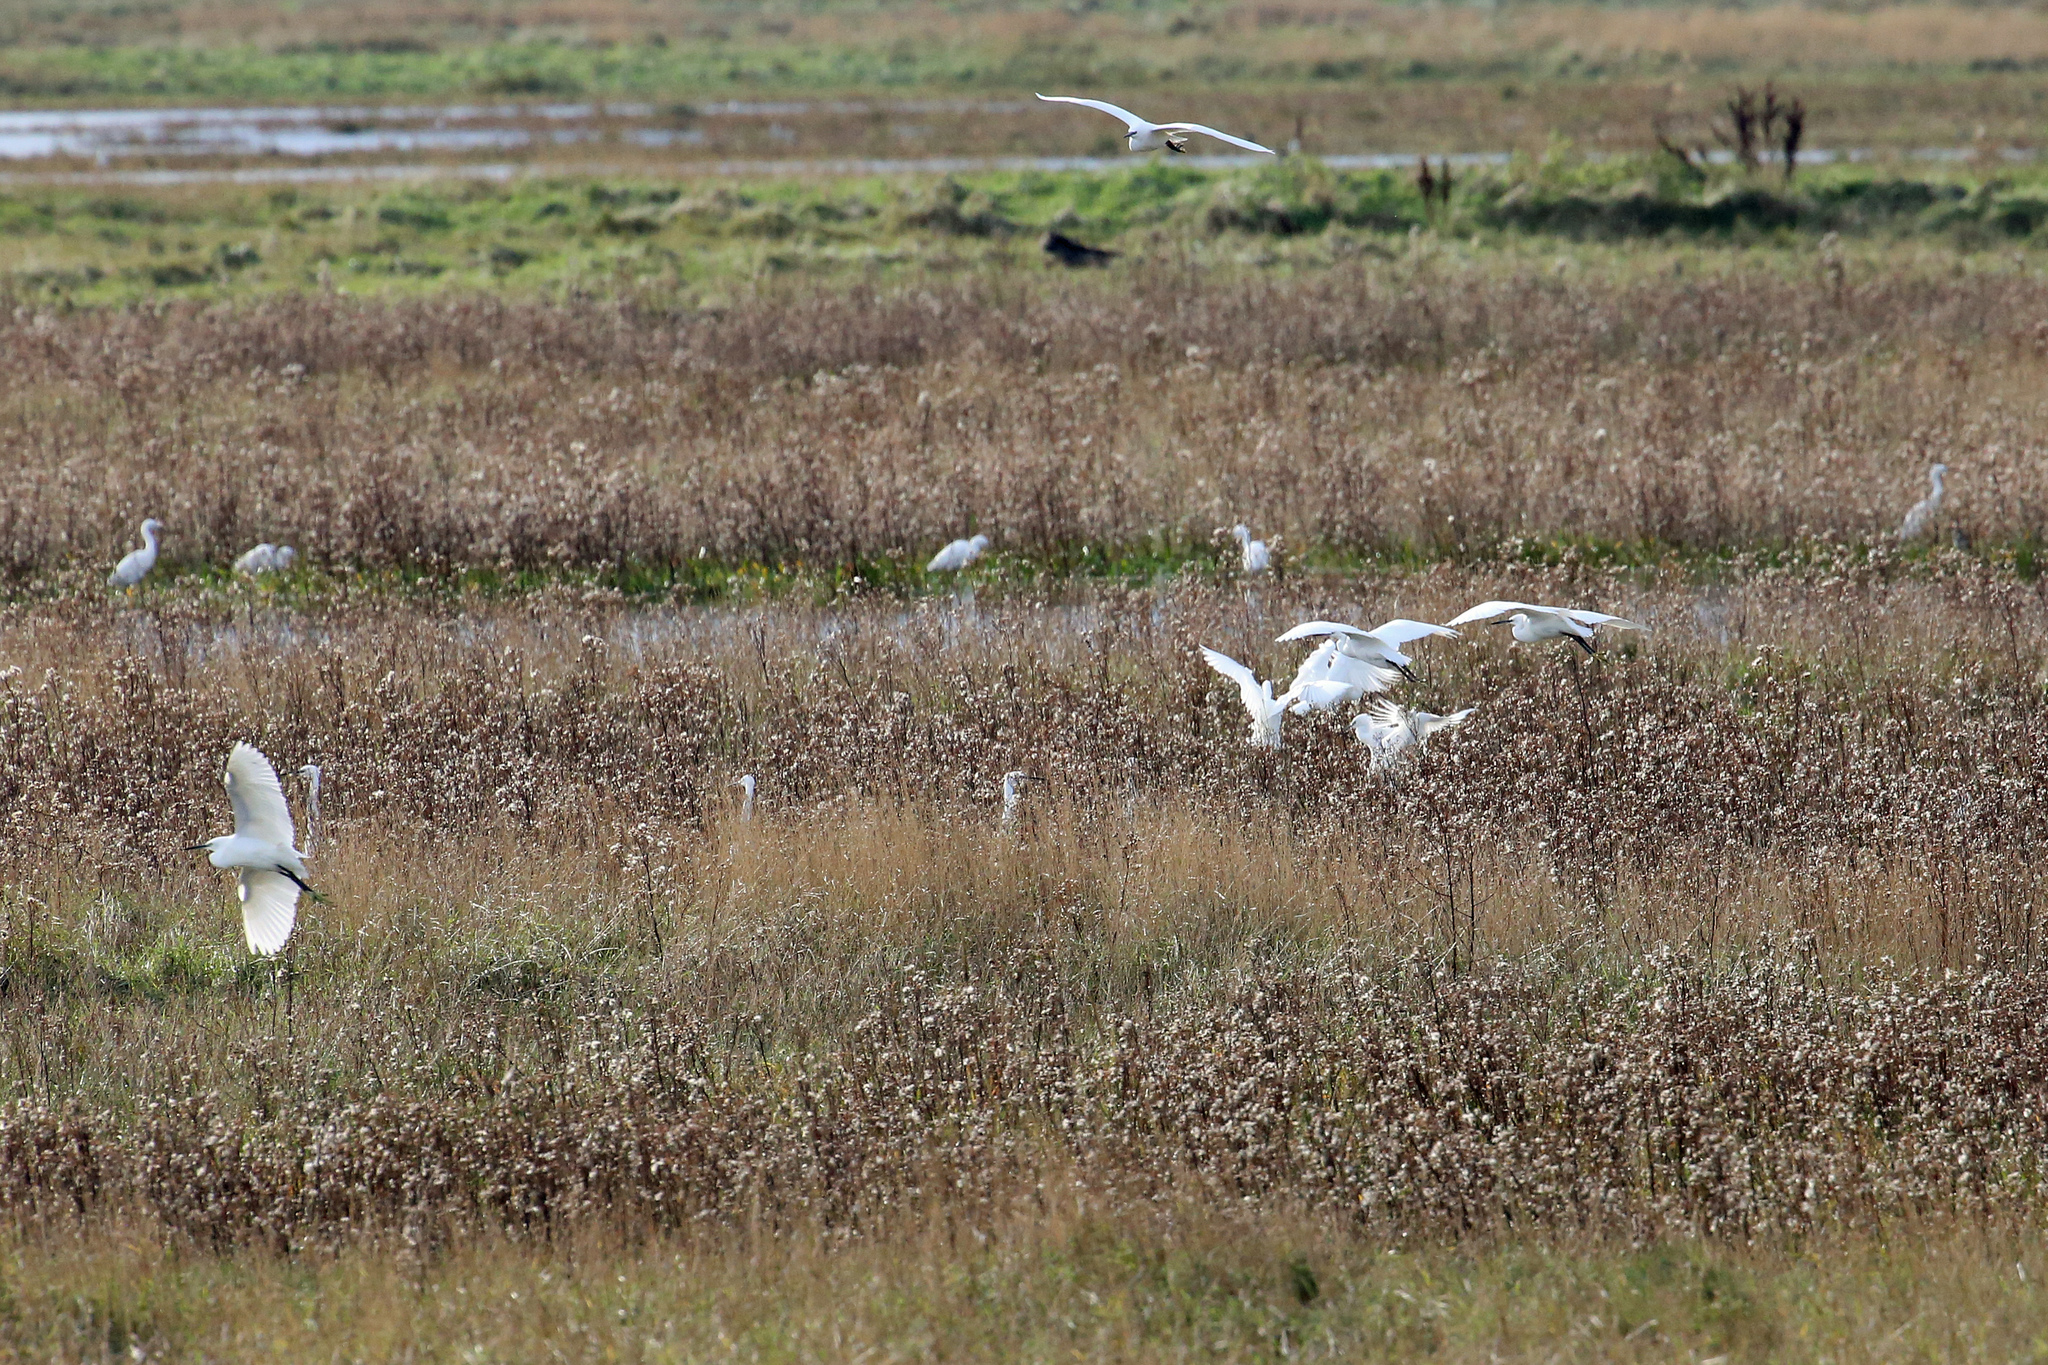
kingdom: Animalia
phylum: Chordata
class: Aves
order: Pelecaniformes
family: Ardeidae
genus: Egretta
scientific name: Egretta garzetta
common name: Little egret
